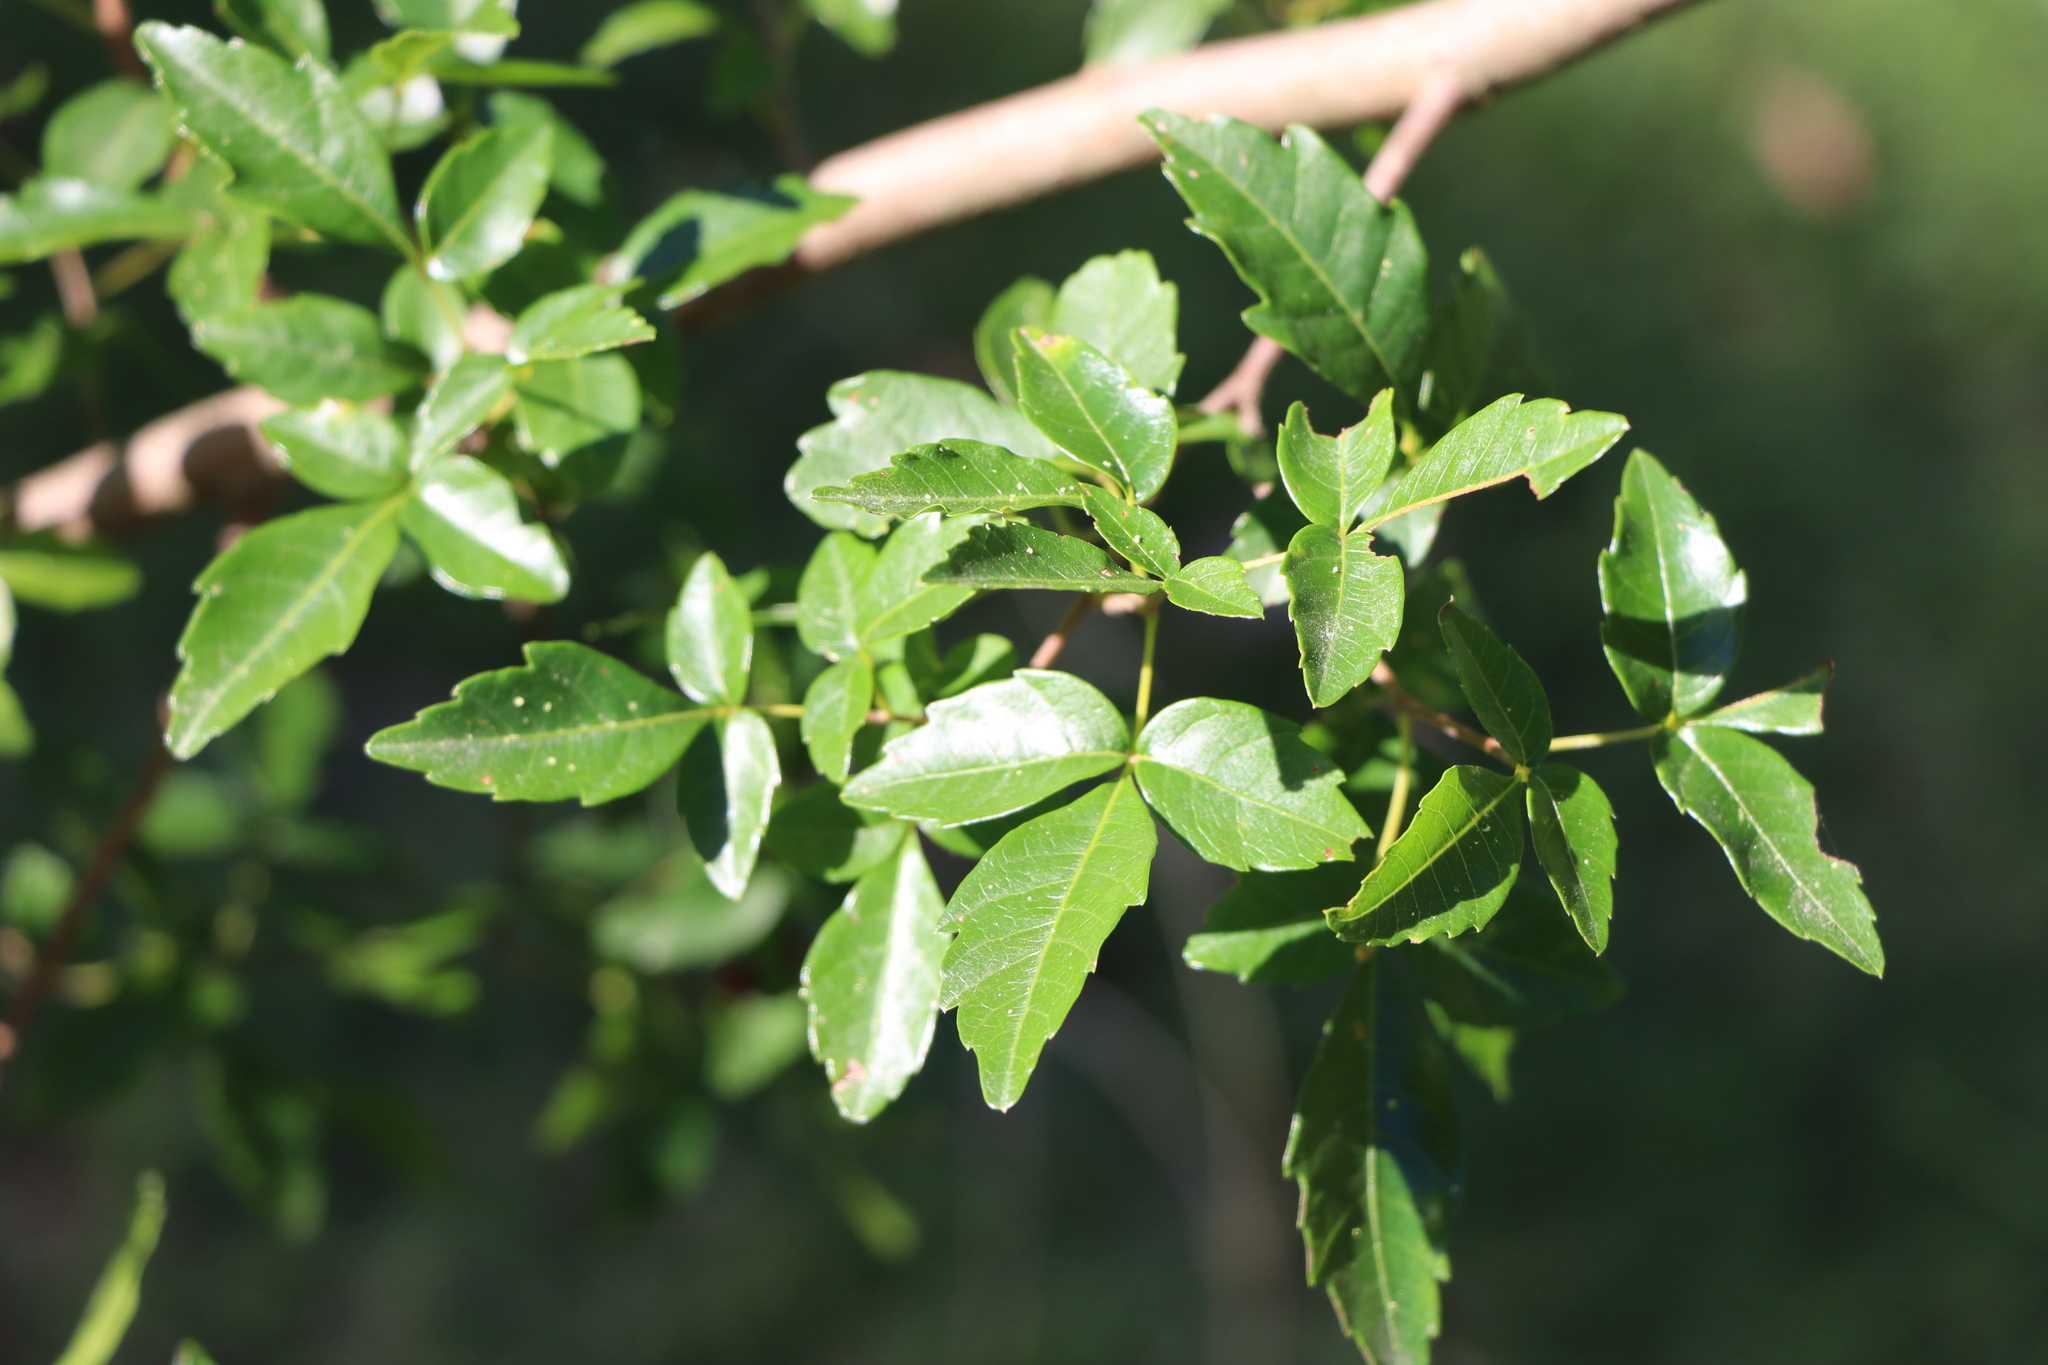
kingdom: Plantae
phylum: Tracheophyta
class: Magnoliopsida
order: Sapindales
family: Sapindaceae
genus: Allophylus
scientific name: Allophylus edulis
